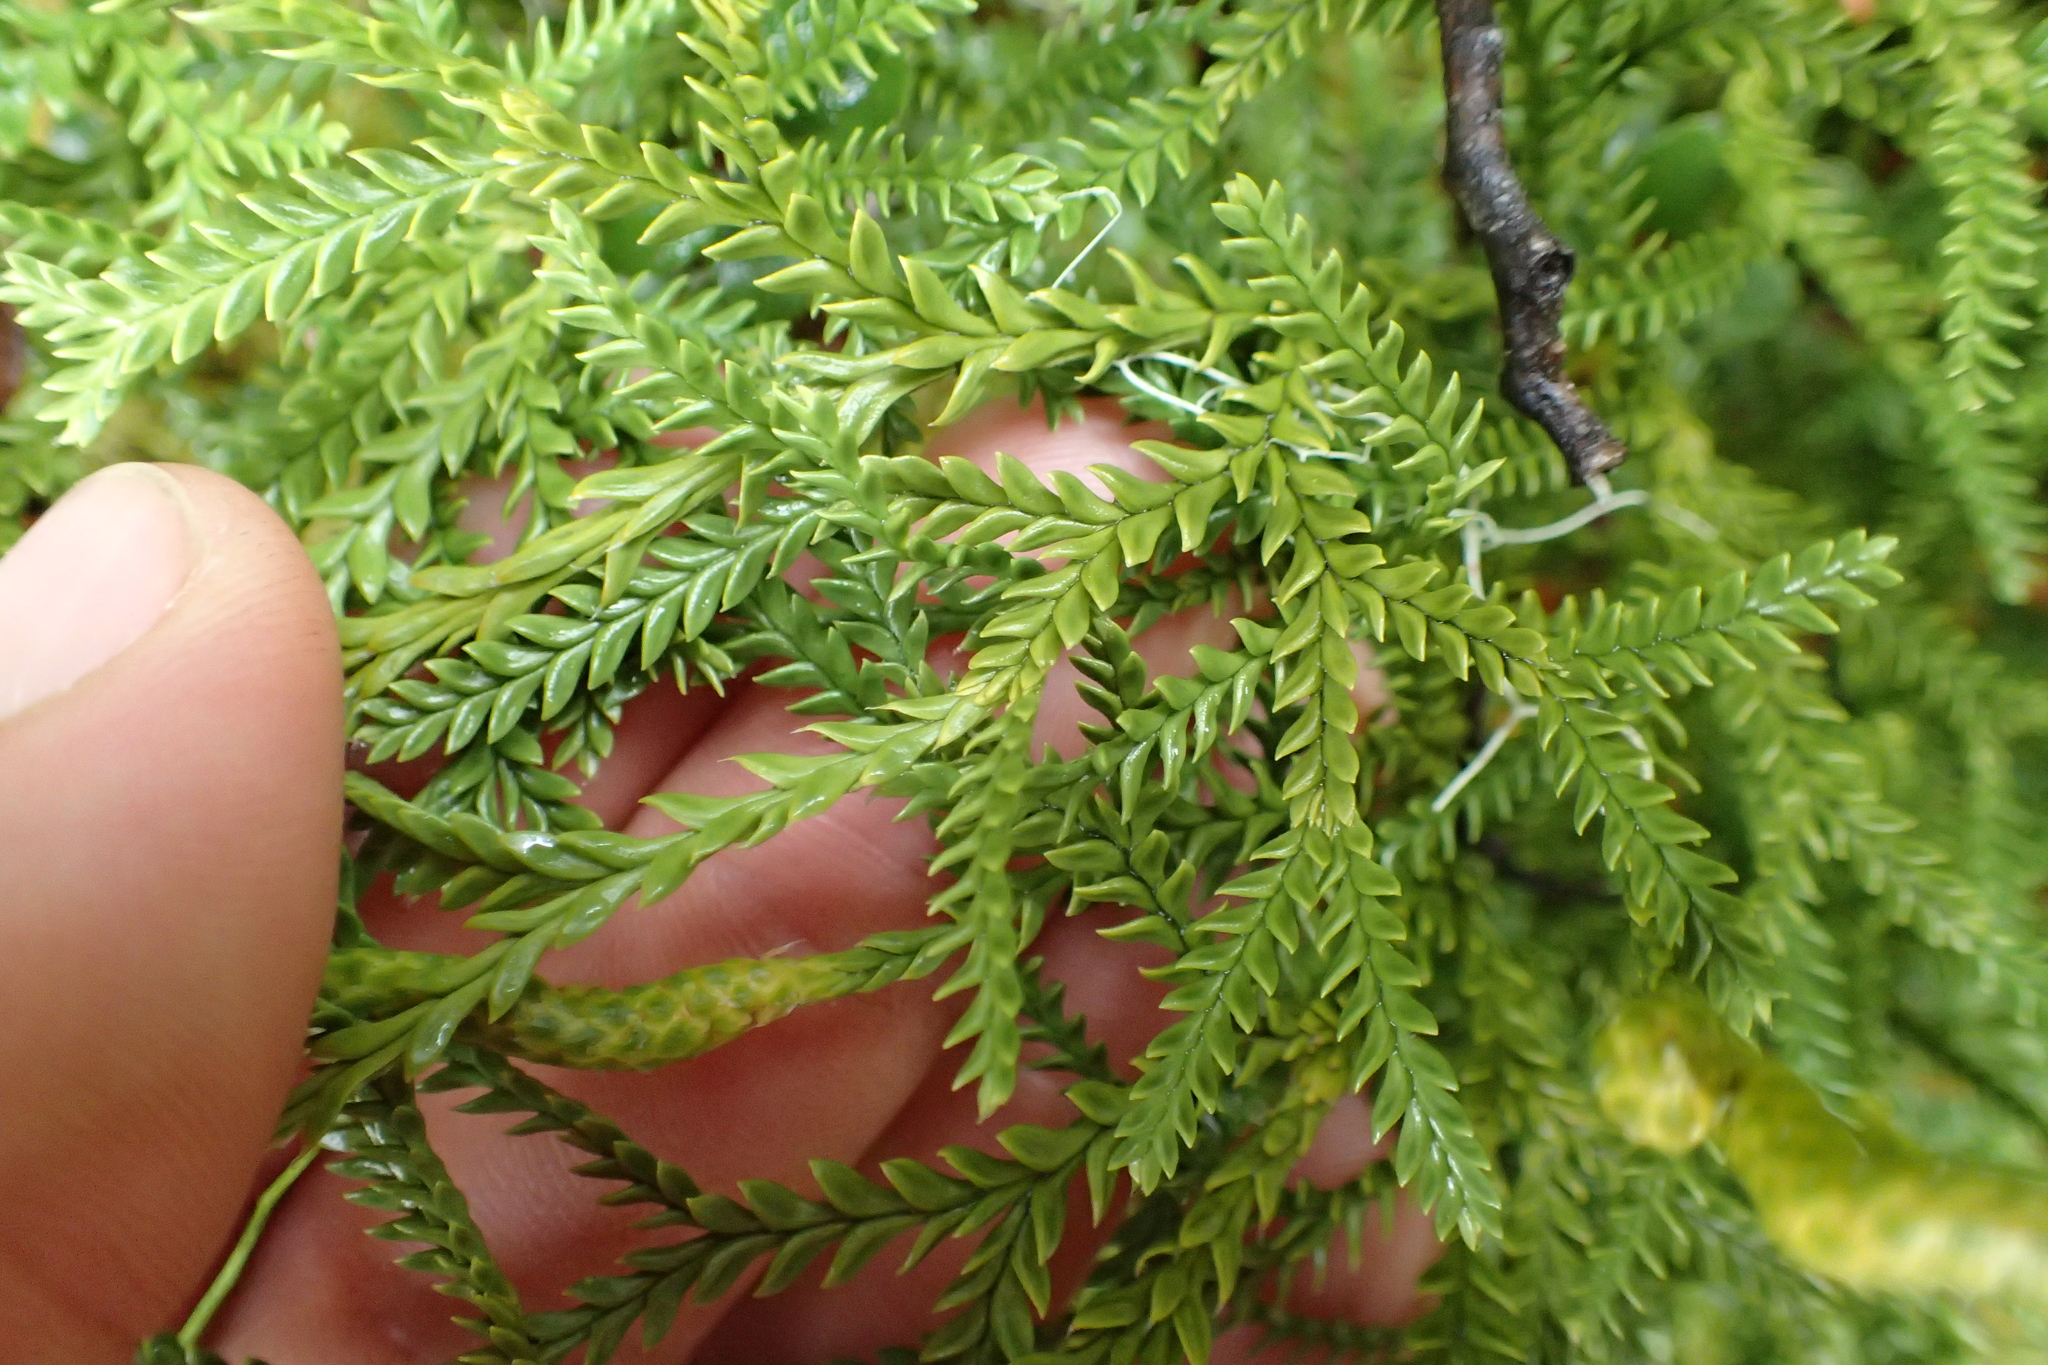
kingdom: Plantae
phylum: Tracheophyta
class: Lycopodiopsida
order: Lycopodiales
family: Lycopodiaceae
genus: Diphasium
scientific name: Diphasium scariosum
